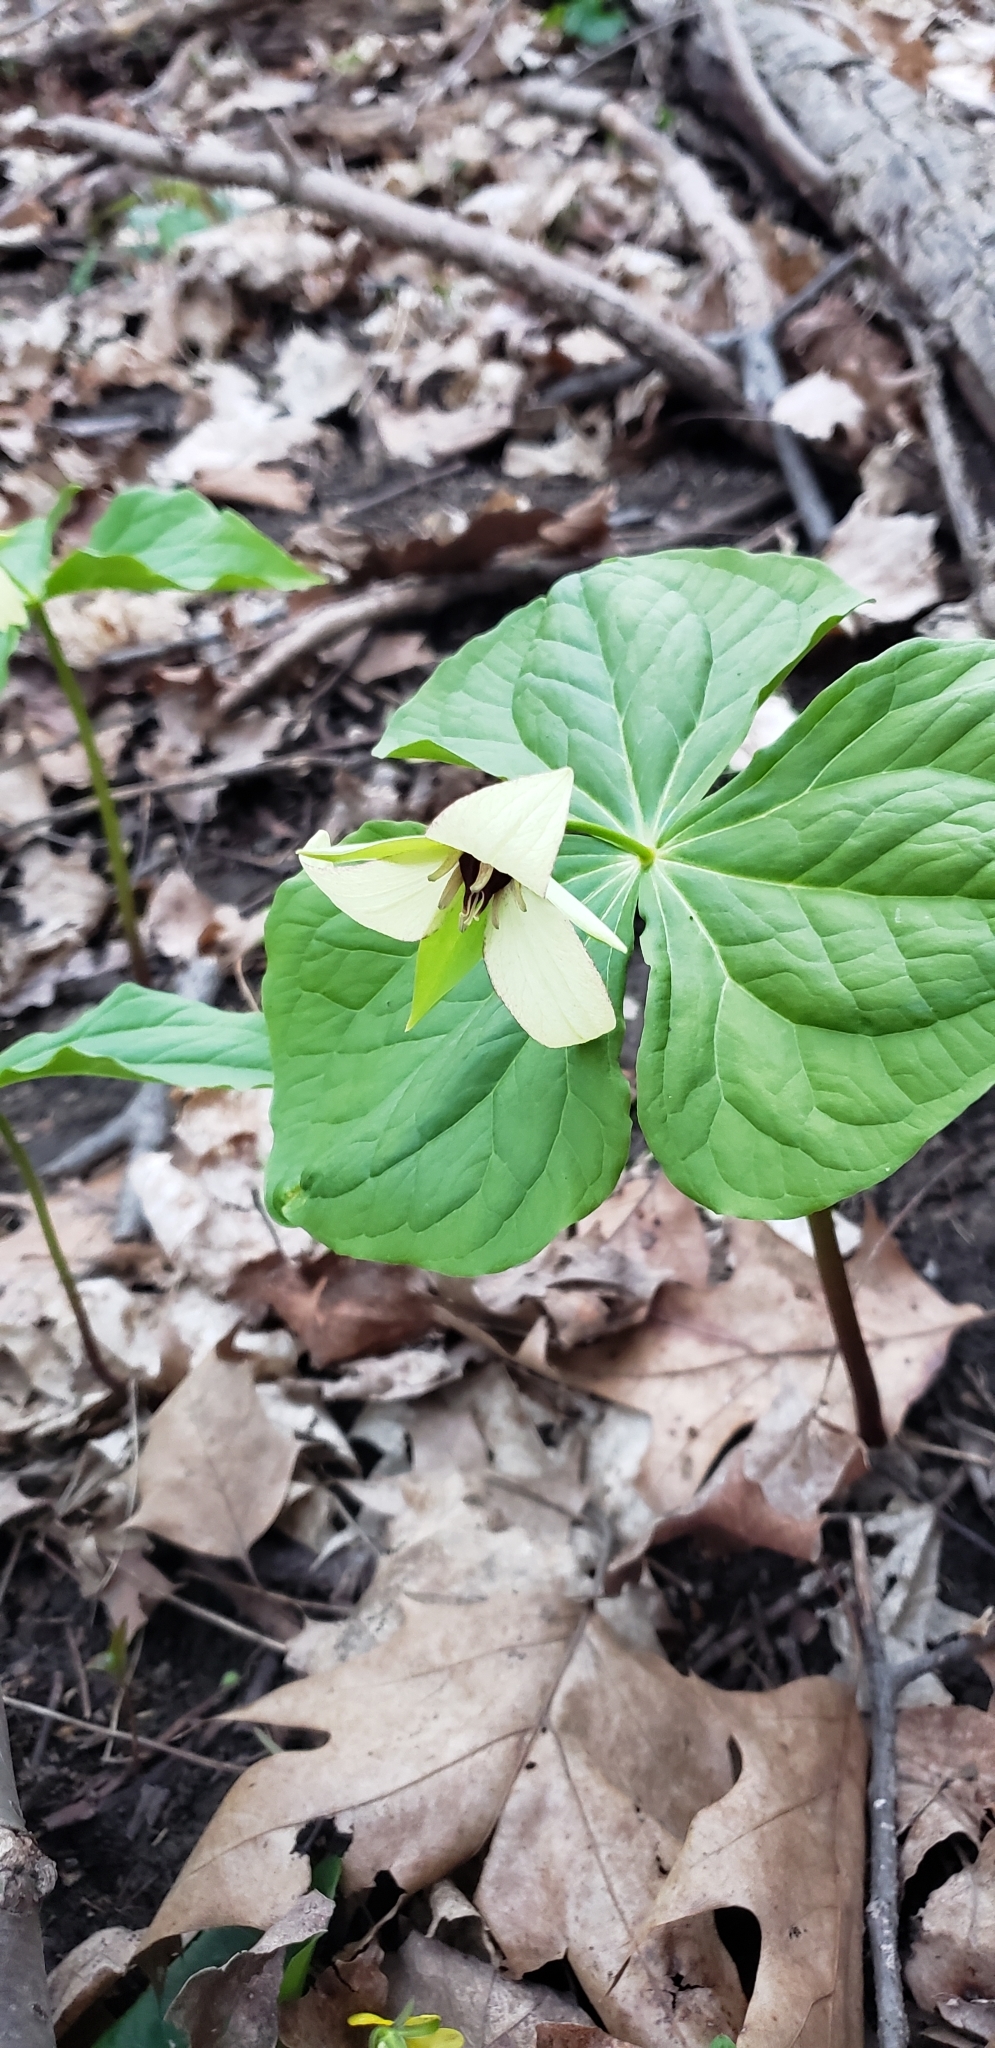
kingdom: Plantae
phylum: Tracheophyta
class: Liliopsida
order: Liliales
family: Melanthiaceae
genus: Trillium
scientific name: Trillium erectum
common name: Purple trillium
